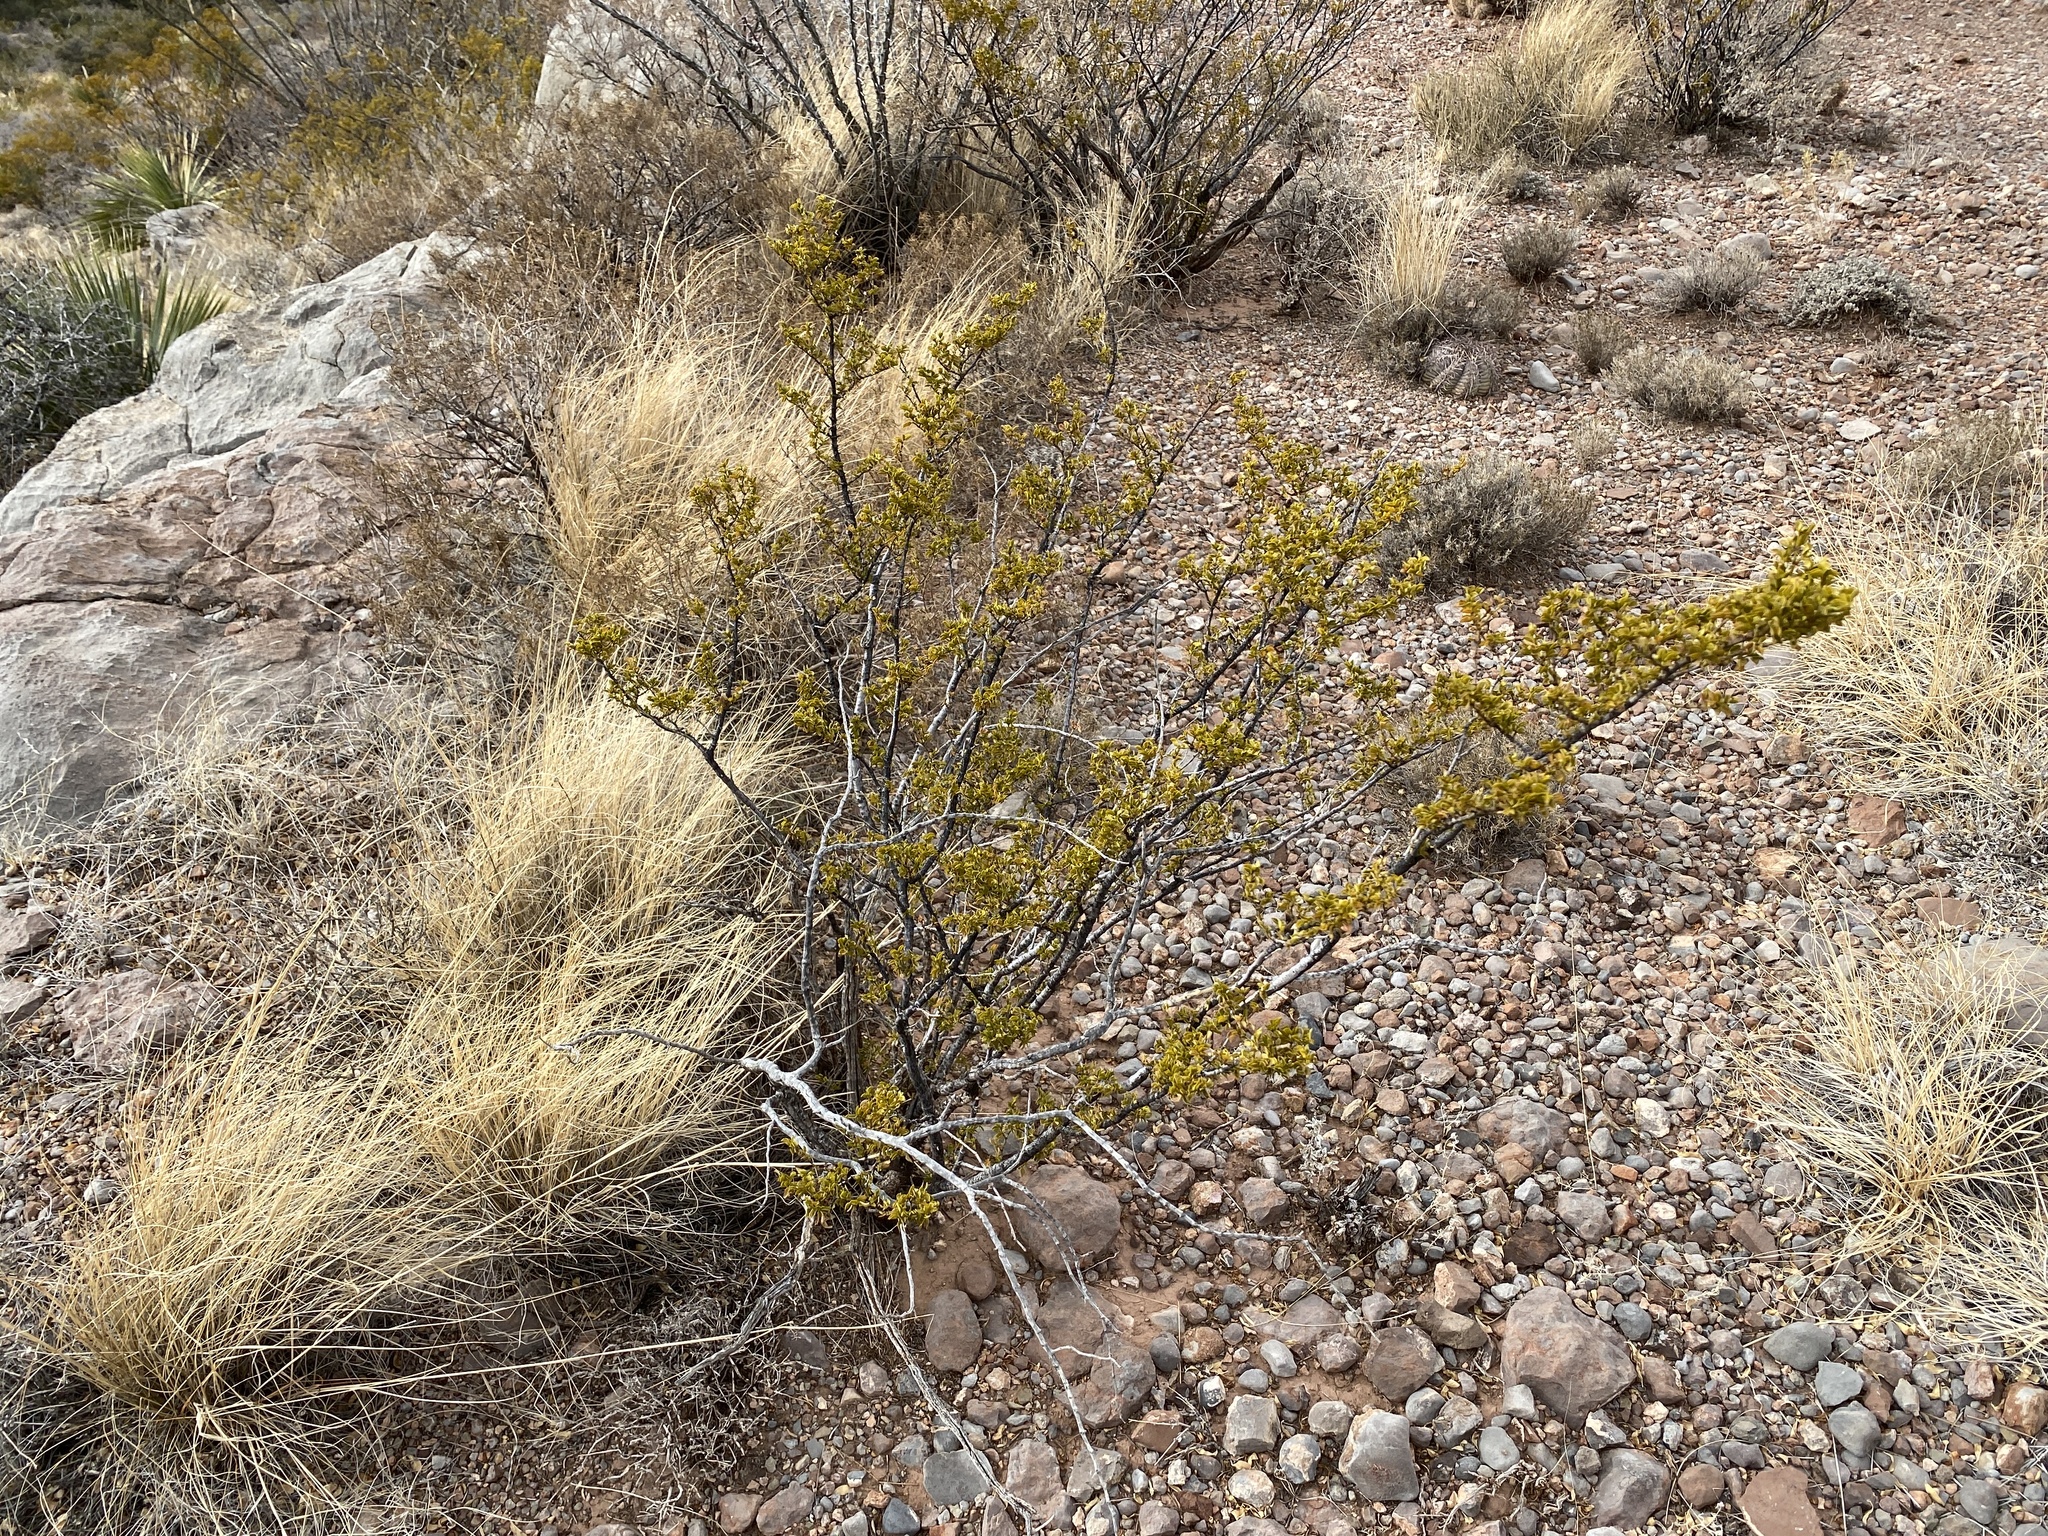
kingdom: Plantae
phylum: Tracheophyta
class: Magnoliopsida
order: Zygophyllales
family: Zygophyllaceae
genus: Larrea
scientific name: Larrea tridentata
